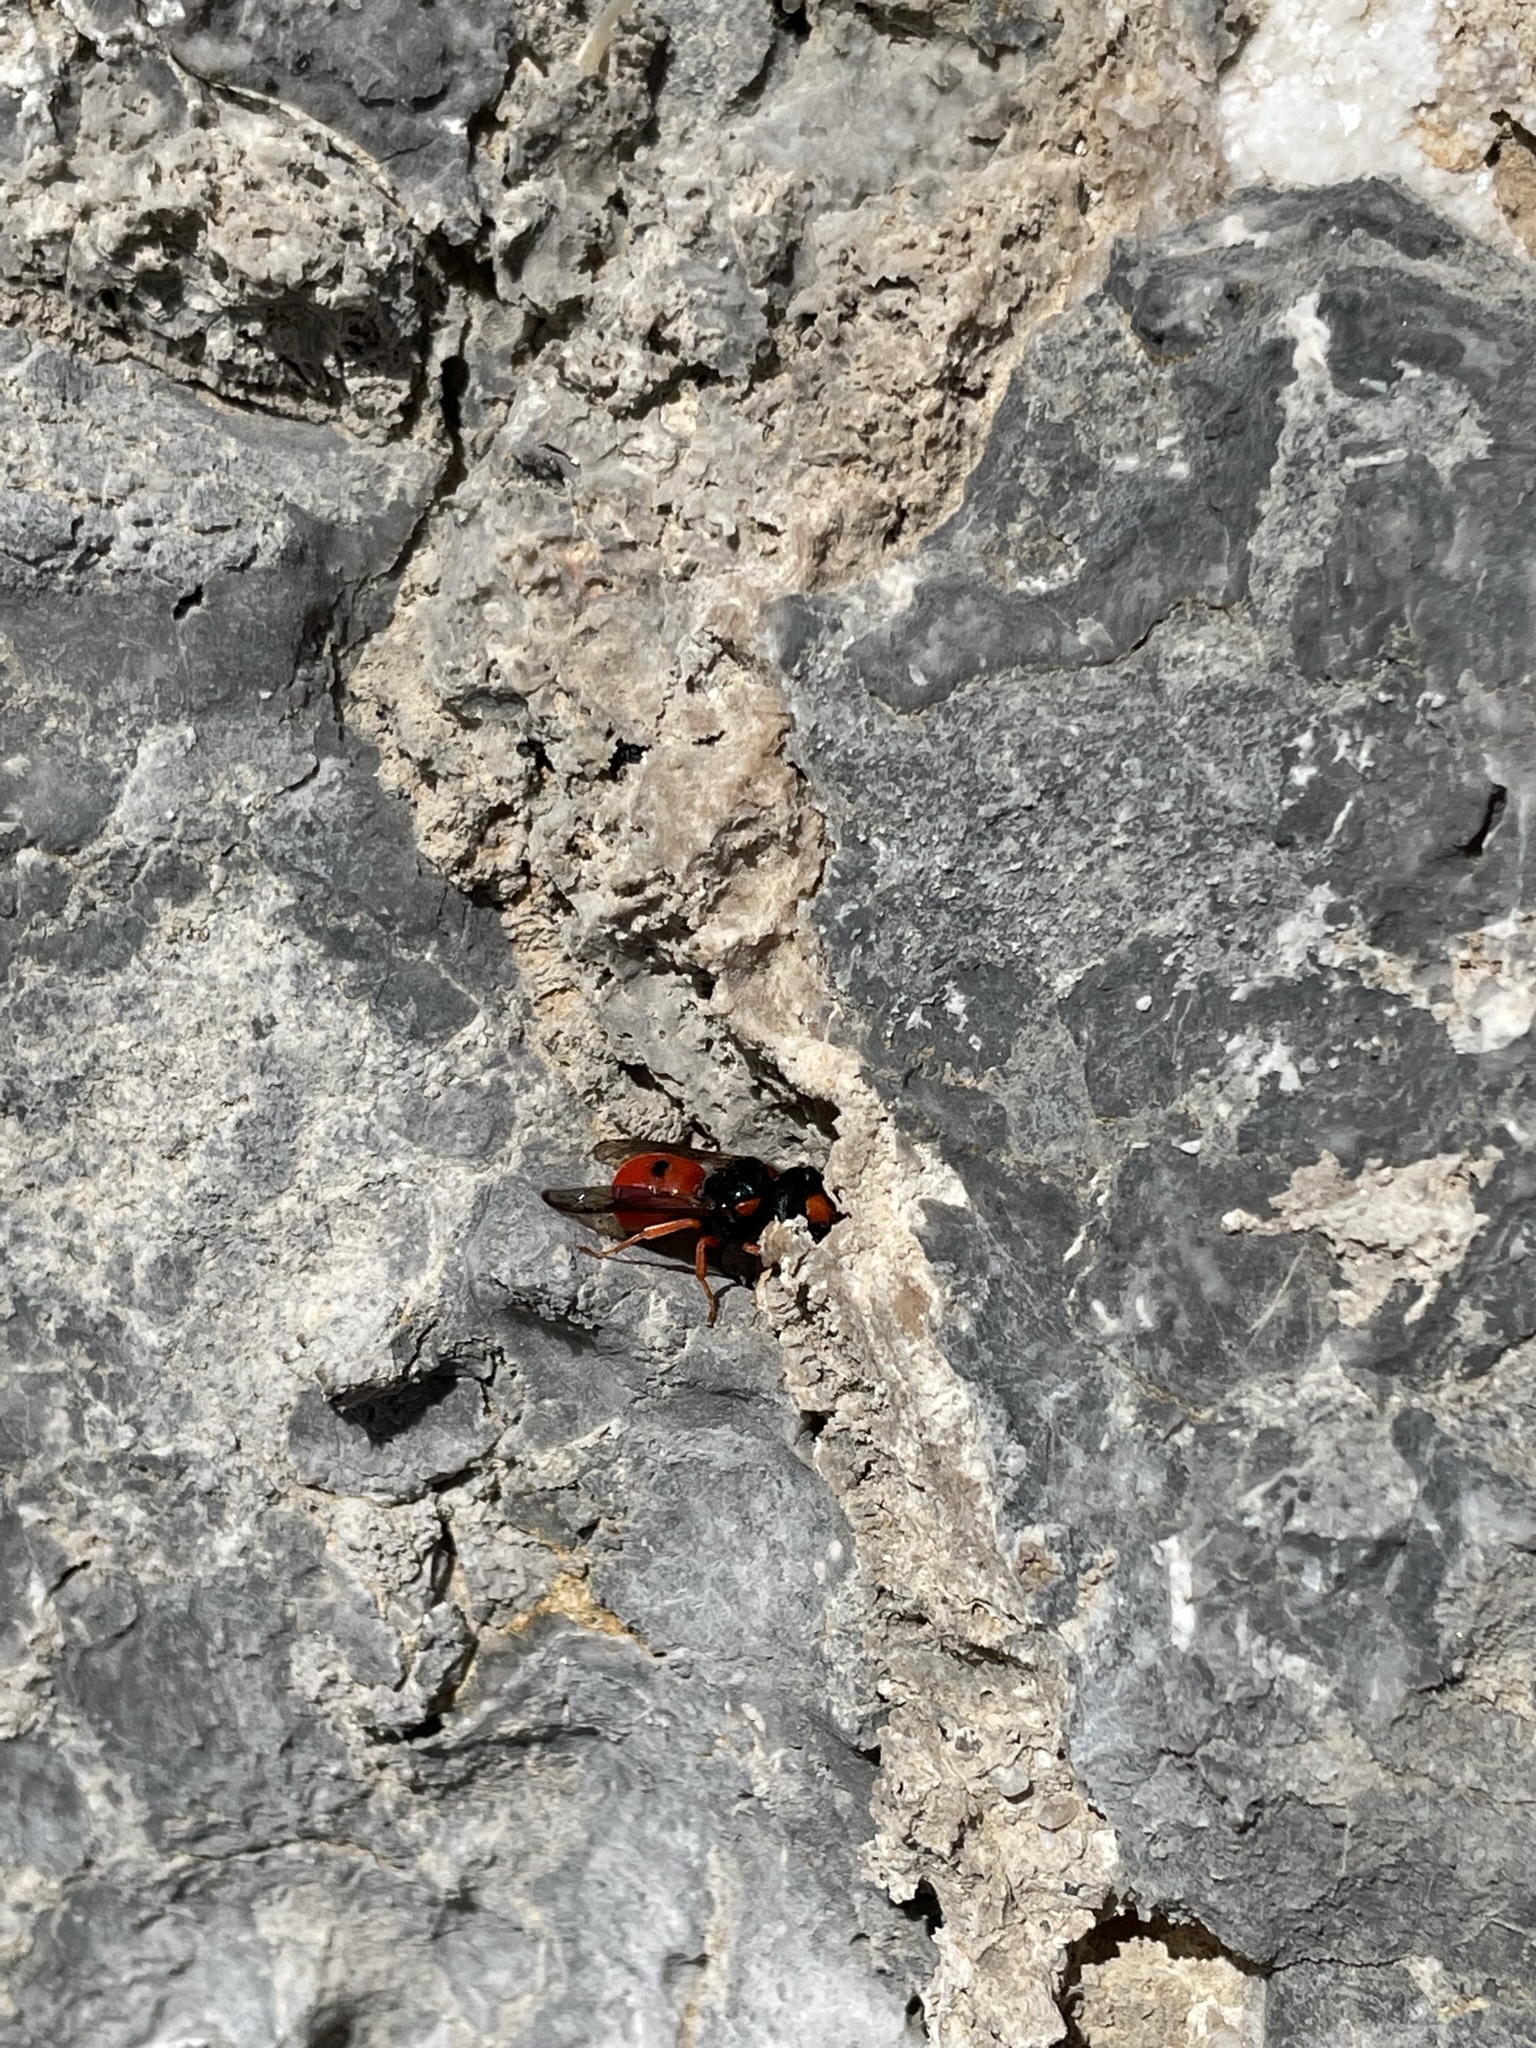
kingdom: Animalia
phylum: Arthropoda
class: Insecta
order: Hymenoptera
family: Vespidae
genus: Odynerus
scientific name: Odynerus cinnabarinus
